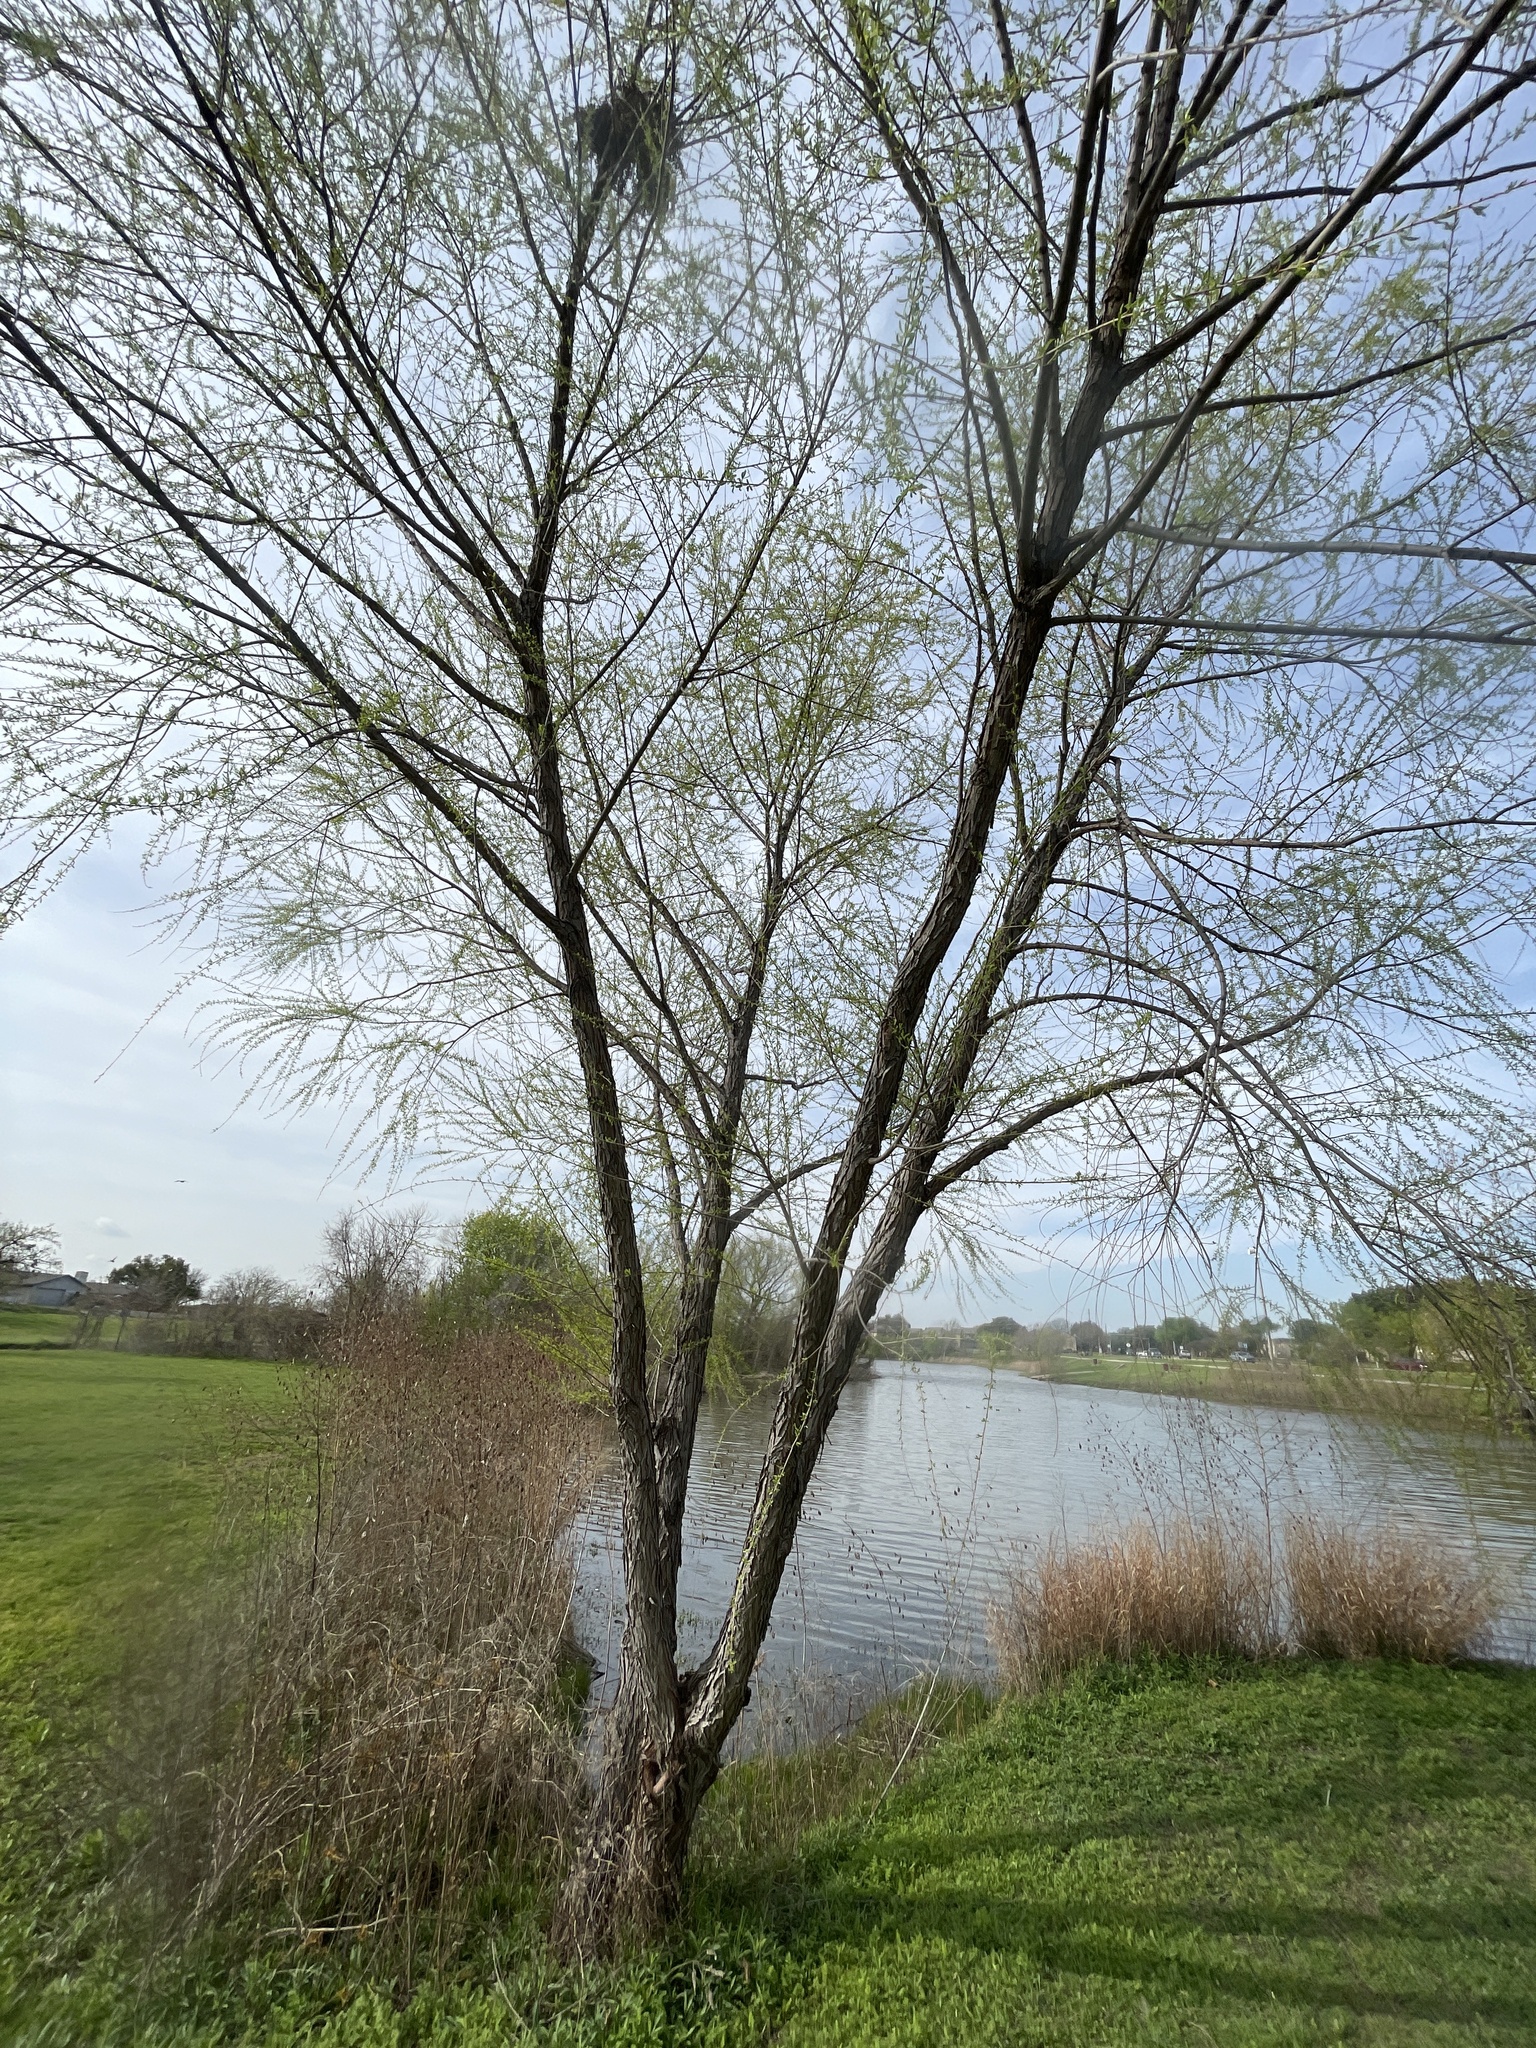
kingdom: Plantae
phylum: Tracheophyta
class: Magnoliopsida
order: Malpighiales
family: Salicaceae
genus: Salix
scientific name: Salix nigra
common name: Black willow
